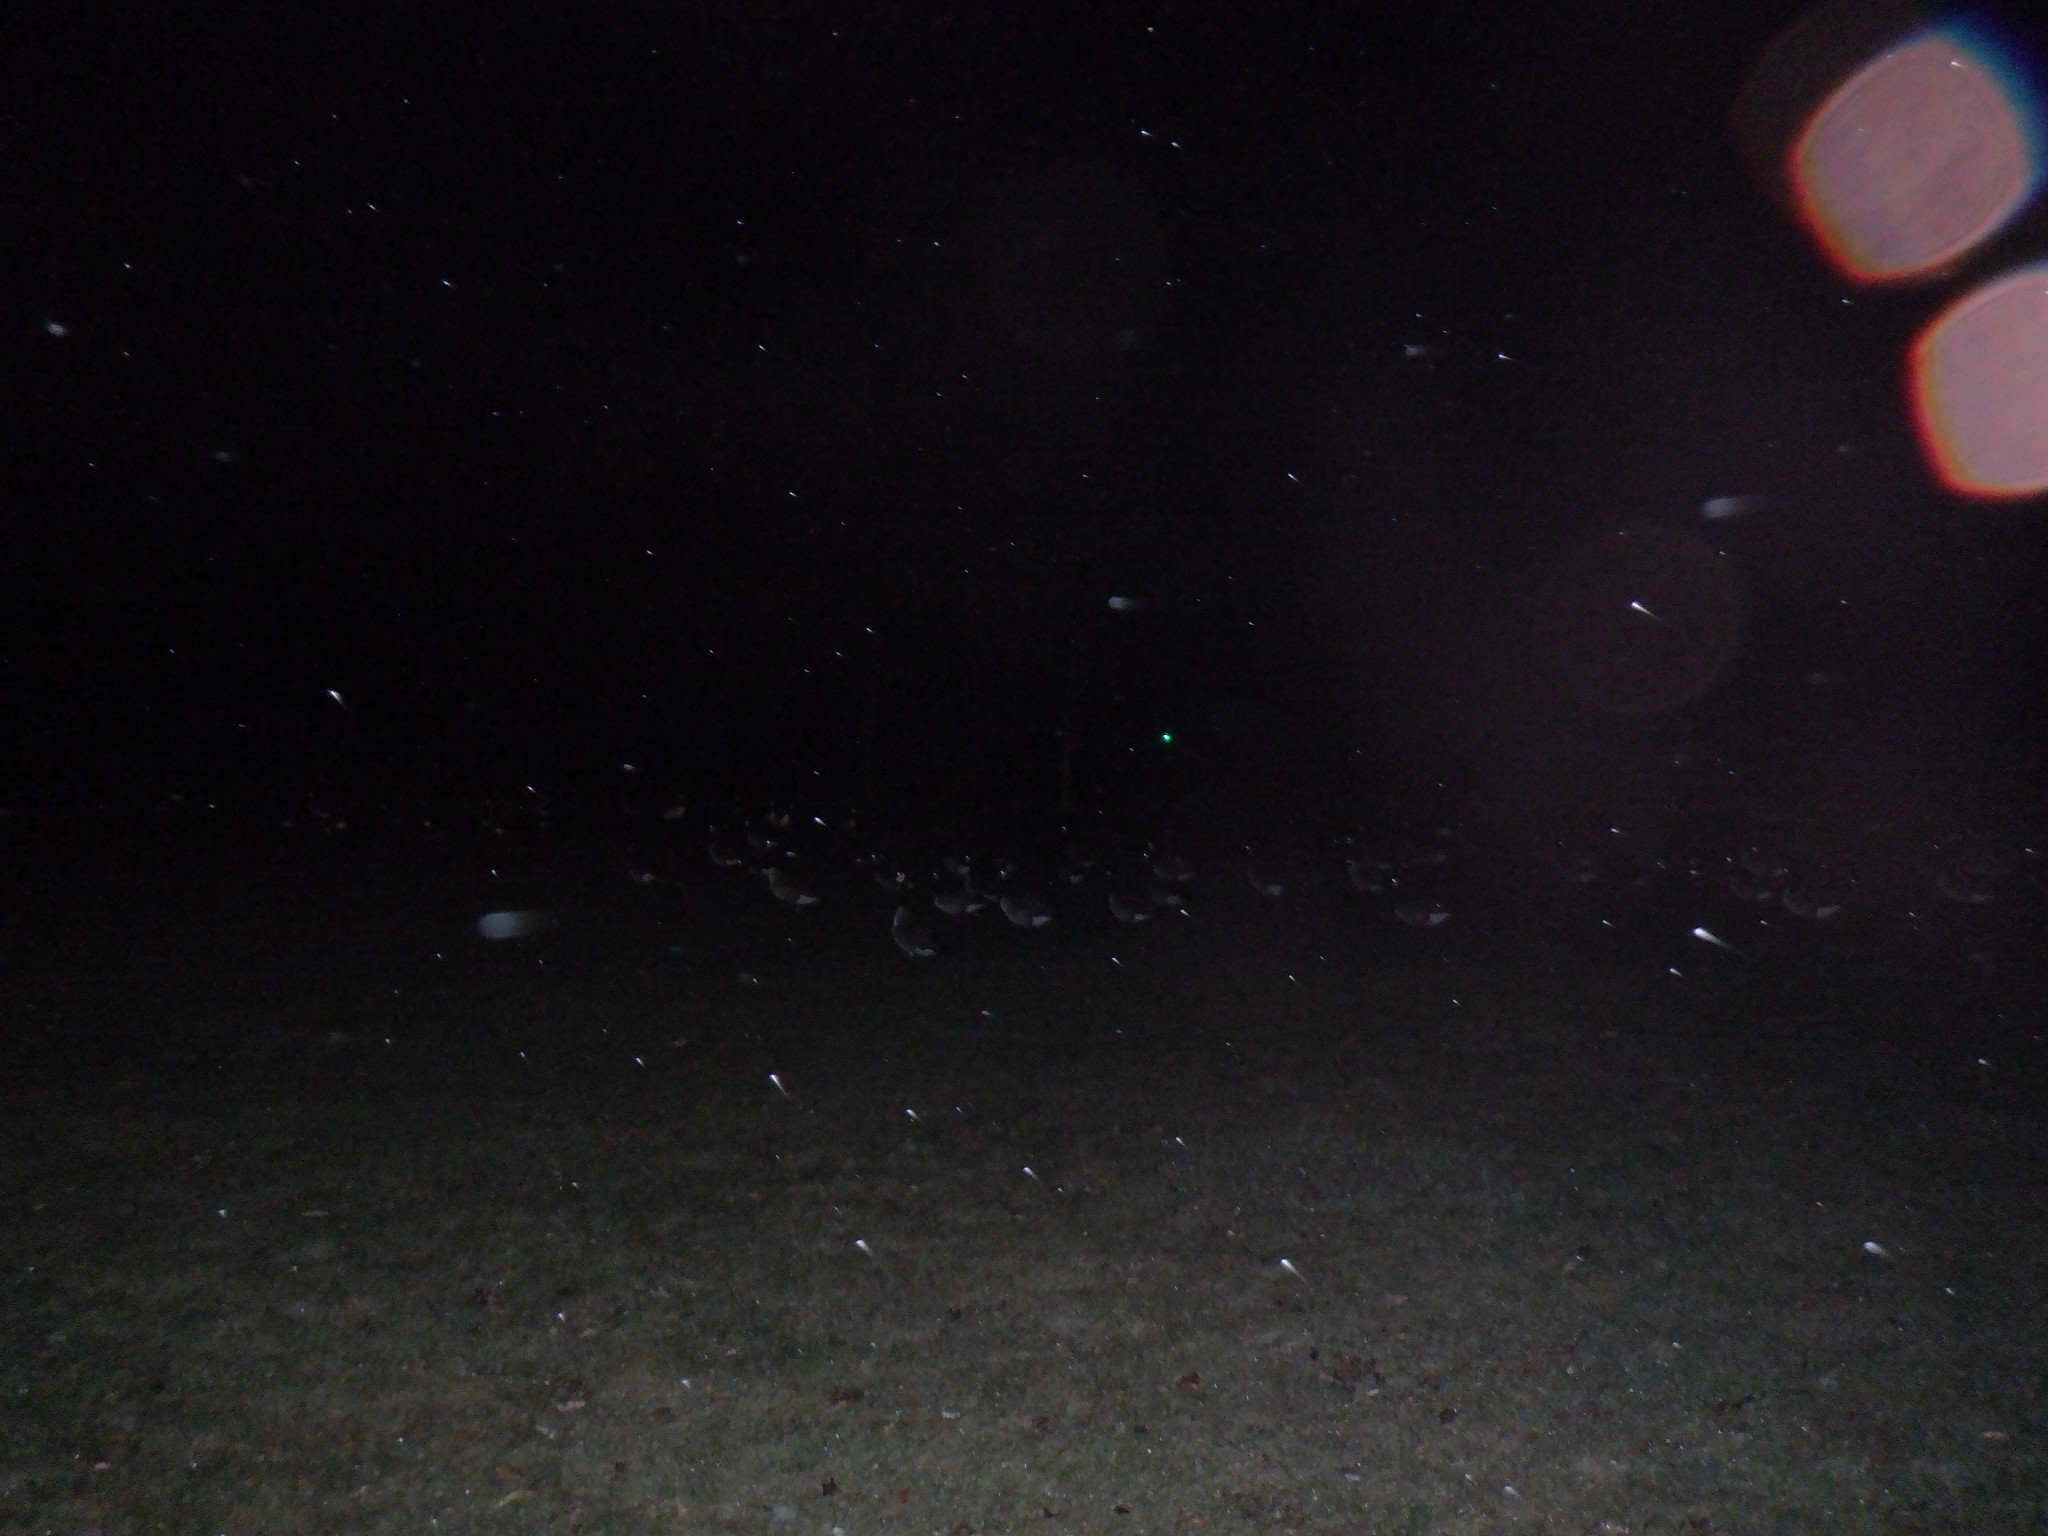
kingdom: Animalia
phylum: Chordata
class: Aves
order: Anseriformes
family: Anatidae
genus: Branta
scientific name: Branta canadensis
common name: Canada goose
